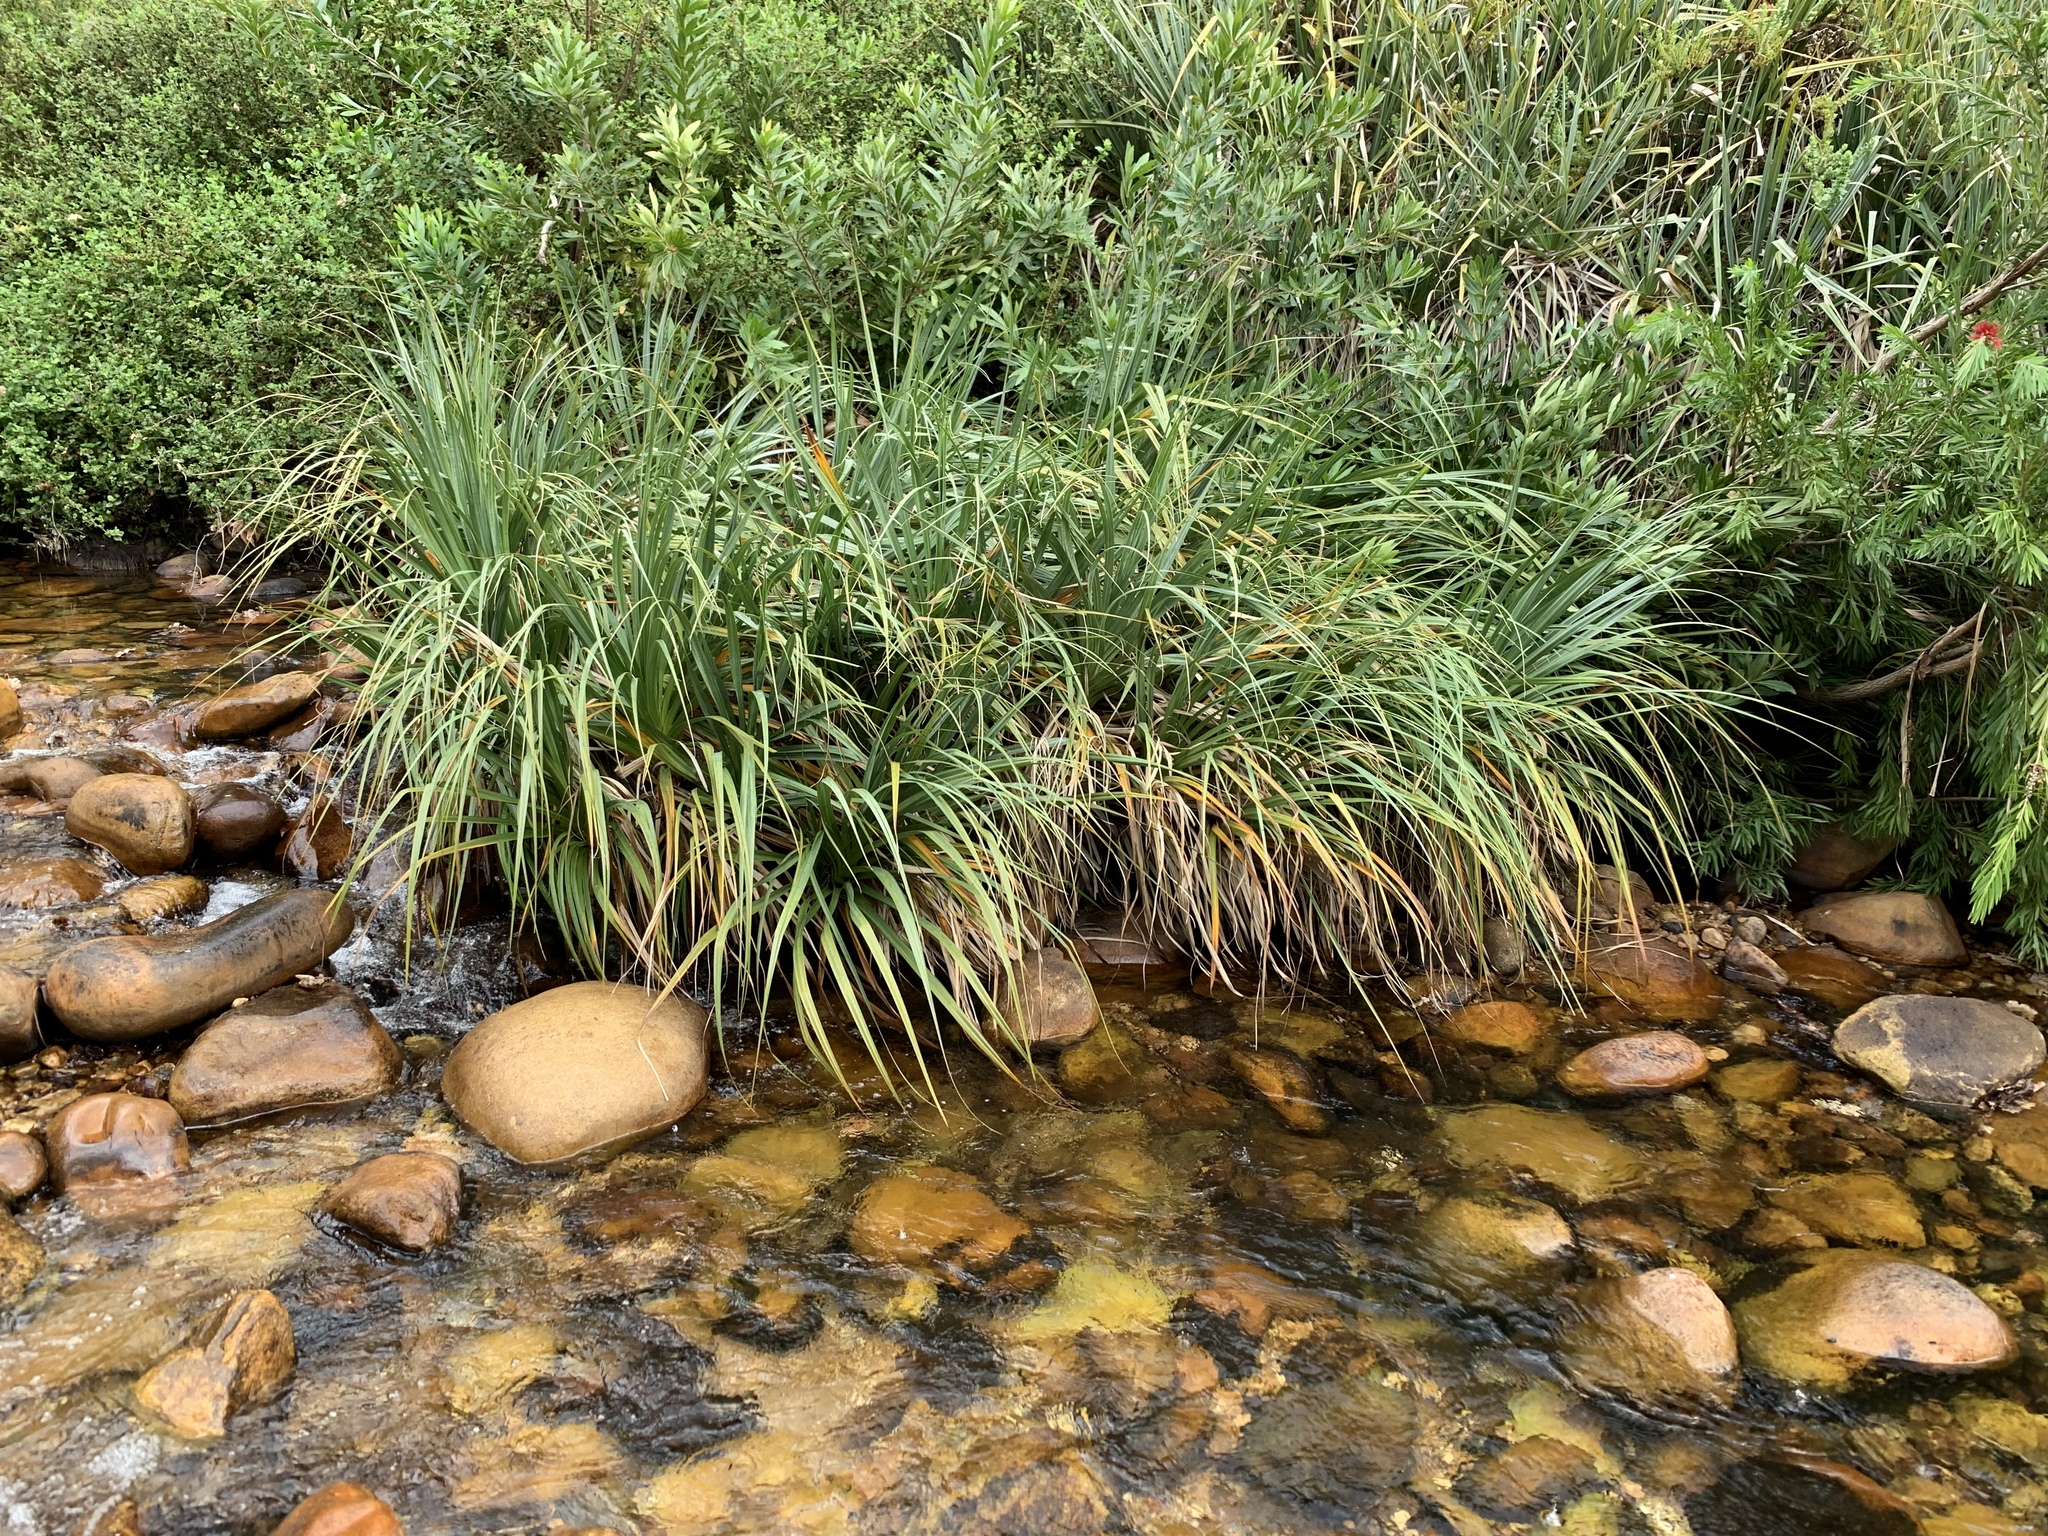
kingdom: Plantae
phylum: Tracheophyta
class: Liliopsida
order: Poales
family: Thurniaceae
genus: Prionium
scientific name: Prionium serratum
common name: Palmiet
